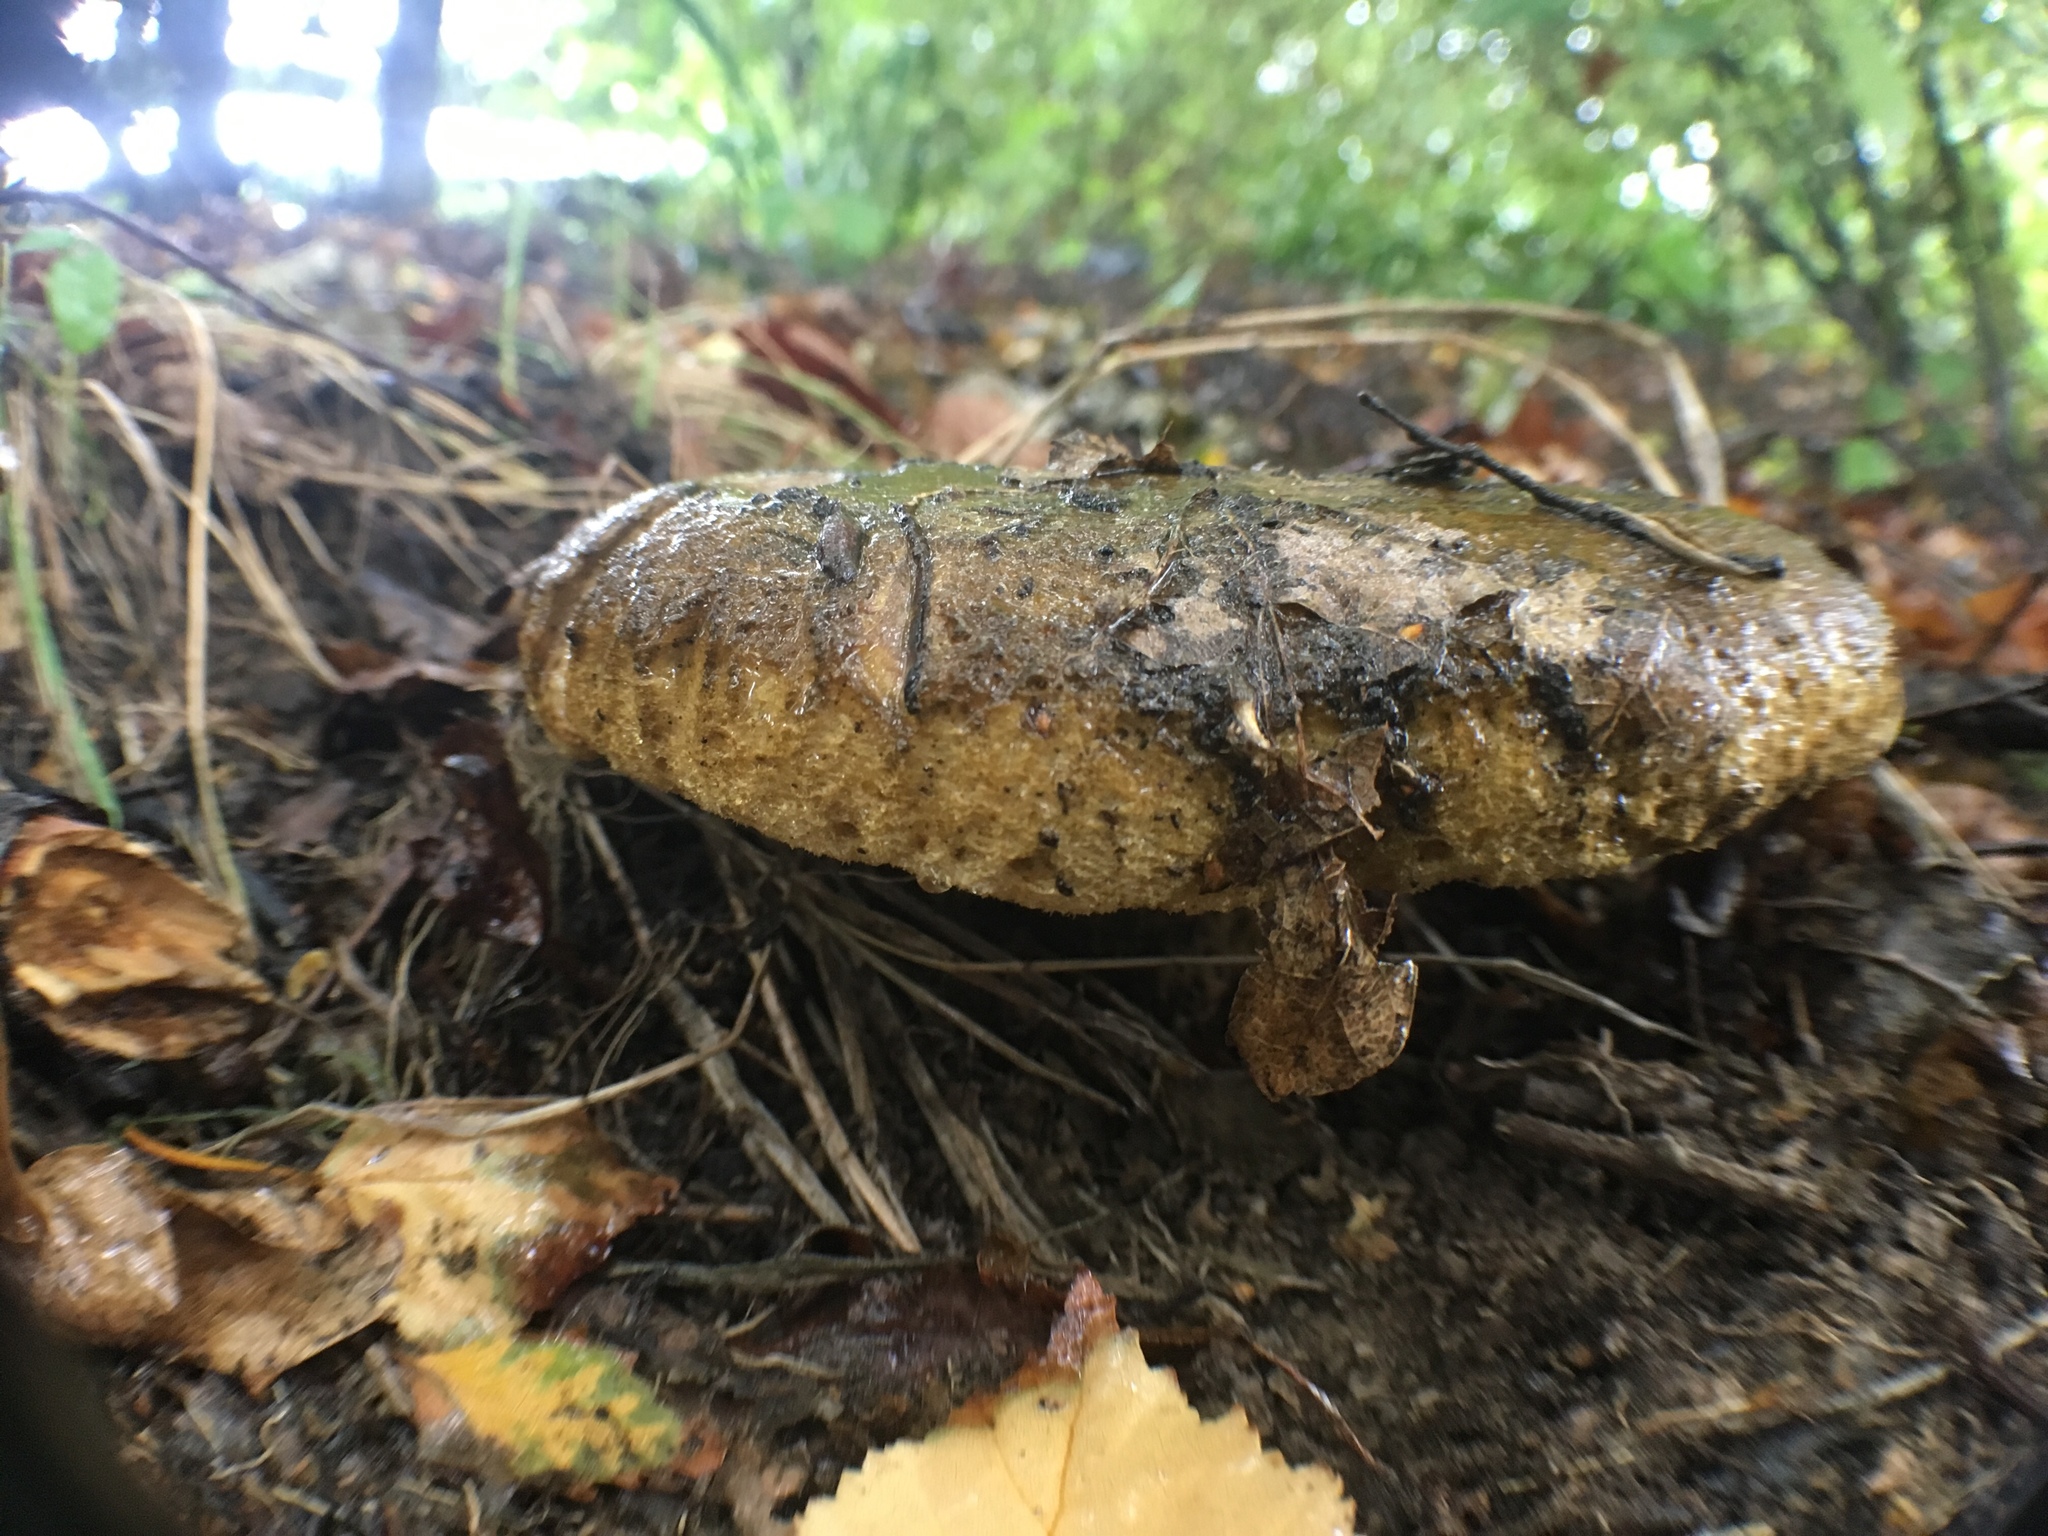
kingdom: Fungi
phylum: Basidiomycota
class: Agaricomycetes
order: Russulales
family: Russulaceae
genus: Lactarius
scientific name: Lactarius turpis
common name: Ugly milk-cap
